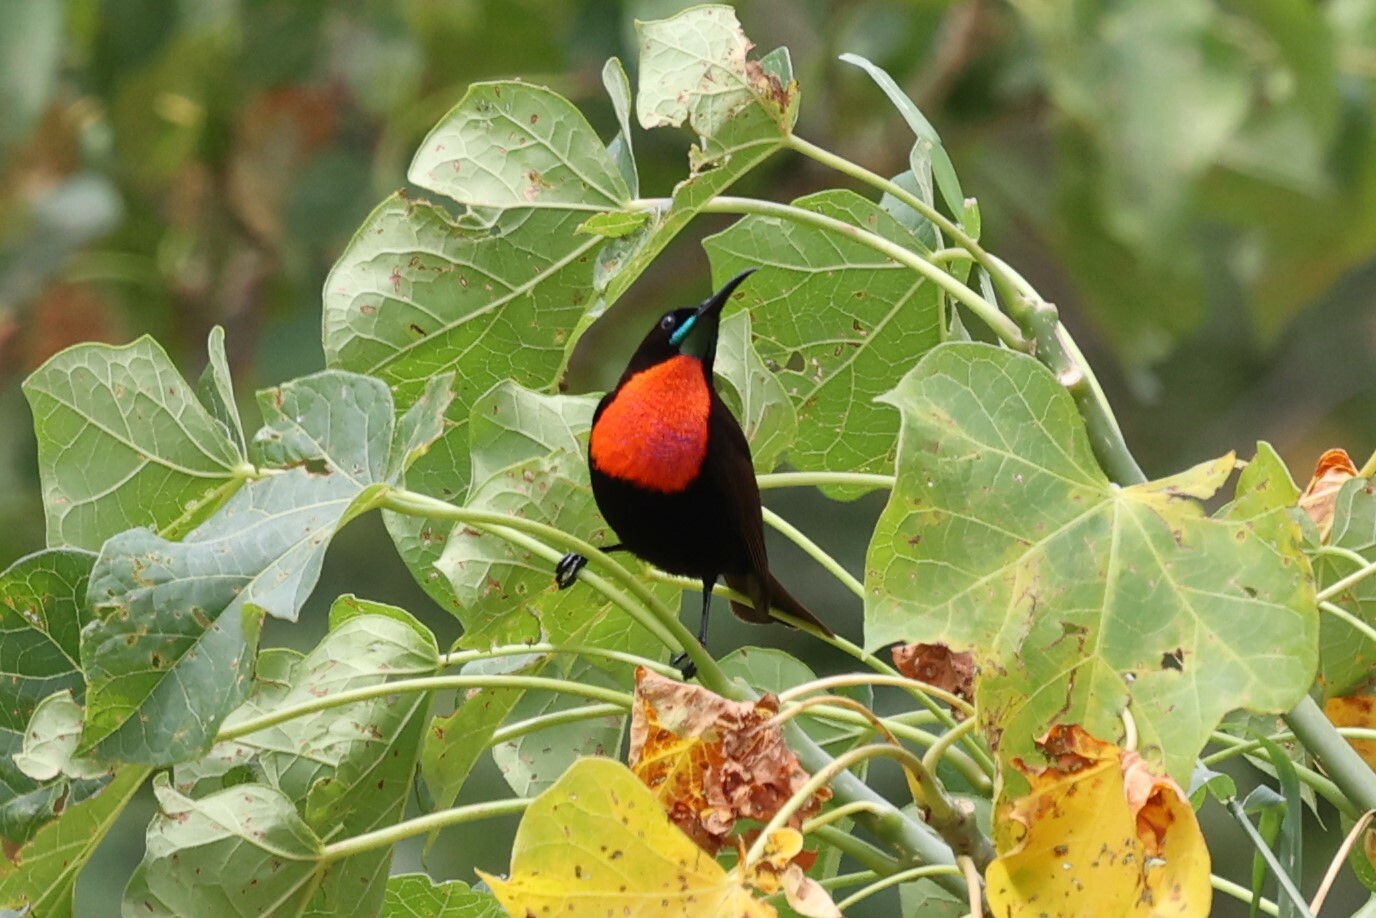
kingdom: Animalia
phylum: Chordata
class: Aves
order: Passeriformes
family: Nectariniidae
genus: Chalcomitra
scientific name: Chalcomitra senegalensis
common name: Scarlet-chested sunbird
